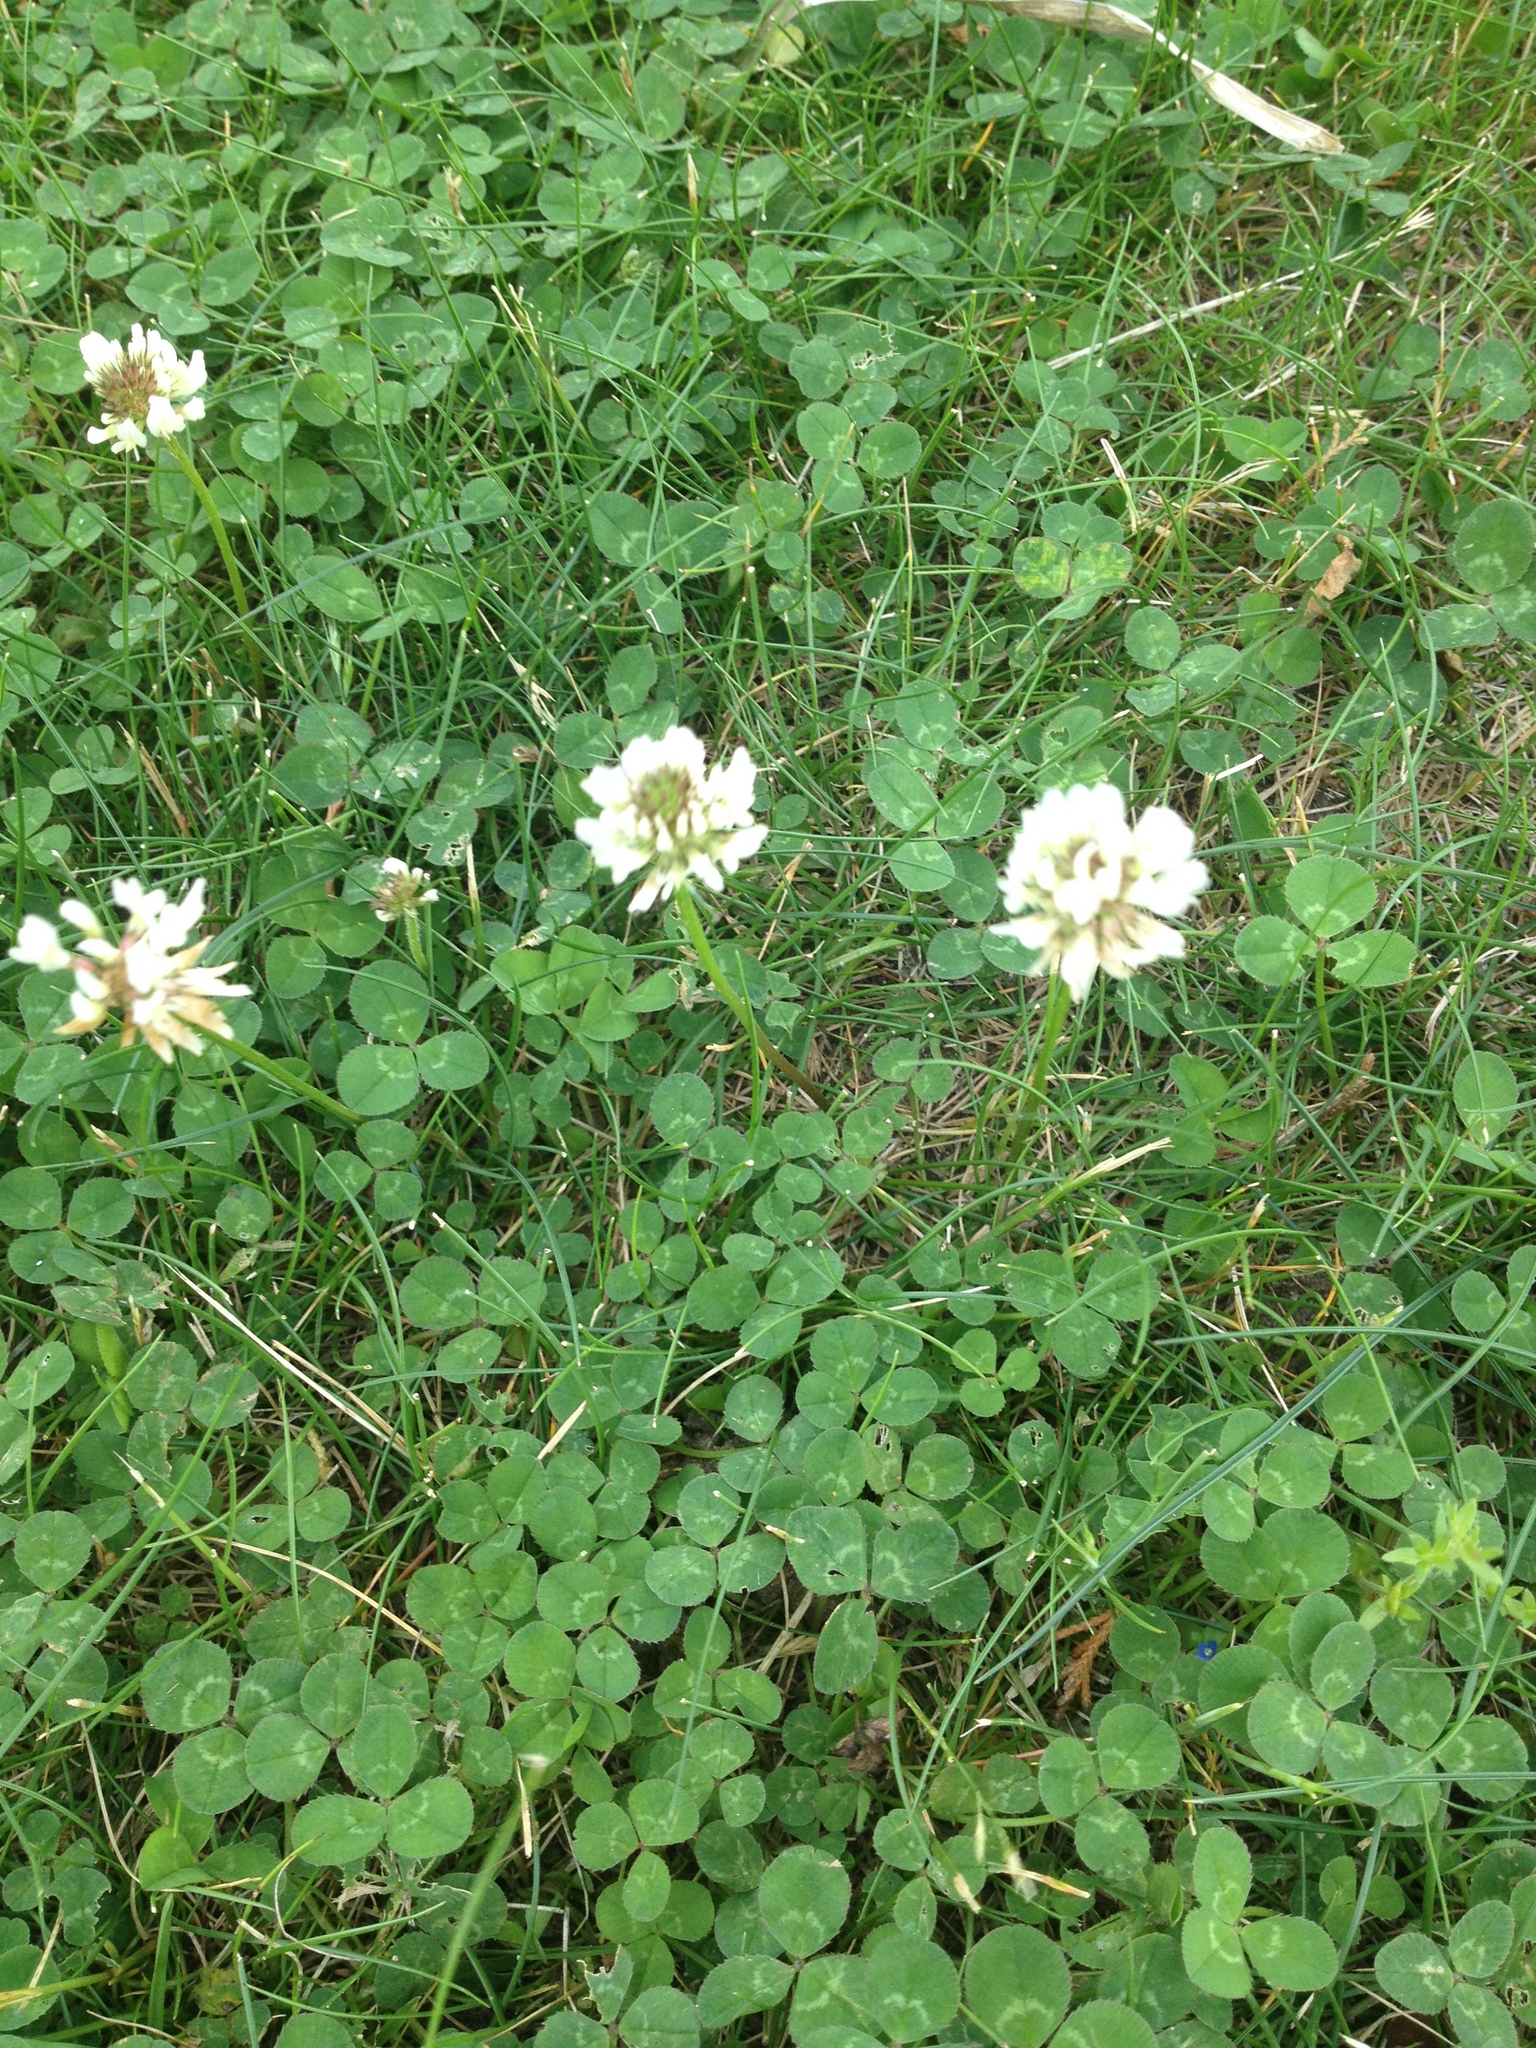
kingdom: Plantae
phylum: Tracheophyta
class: Magnoliopsida
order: Fabales
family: Fabaceae
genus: Trifolium
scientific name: Trifolium repens
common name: White clover
